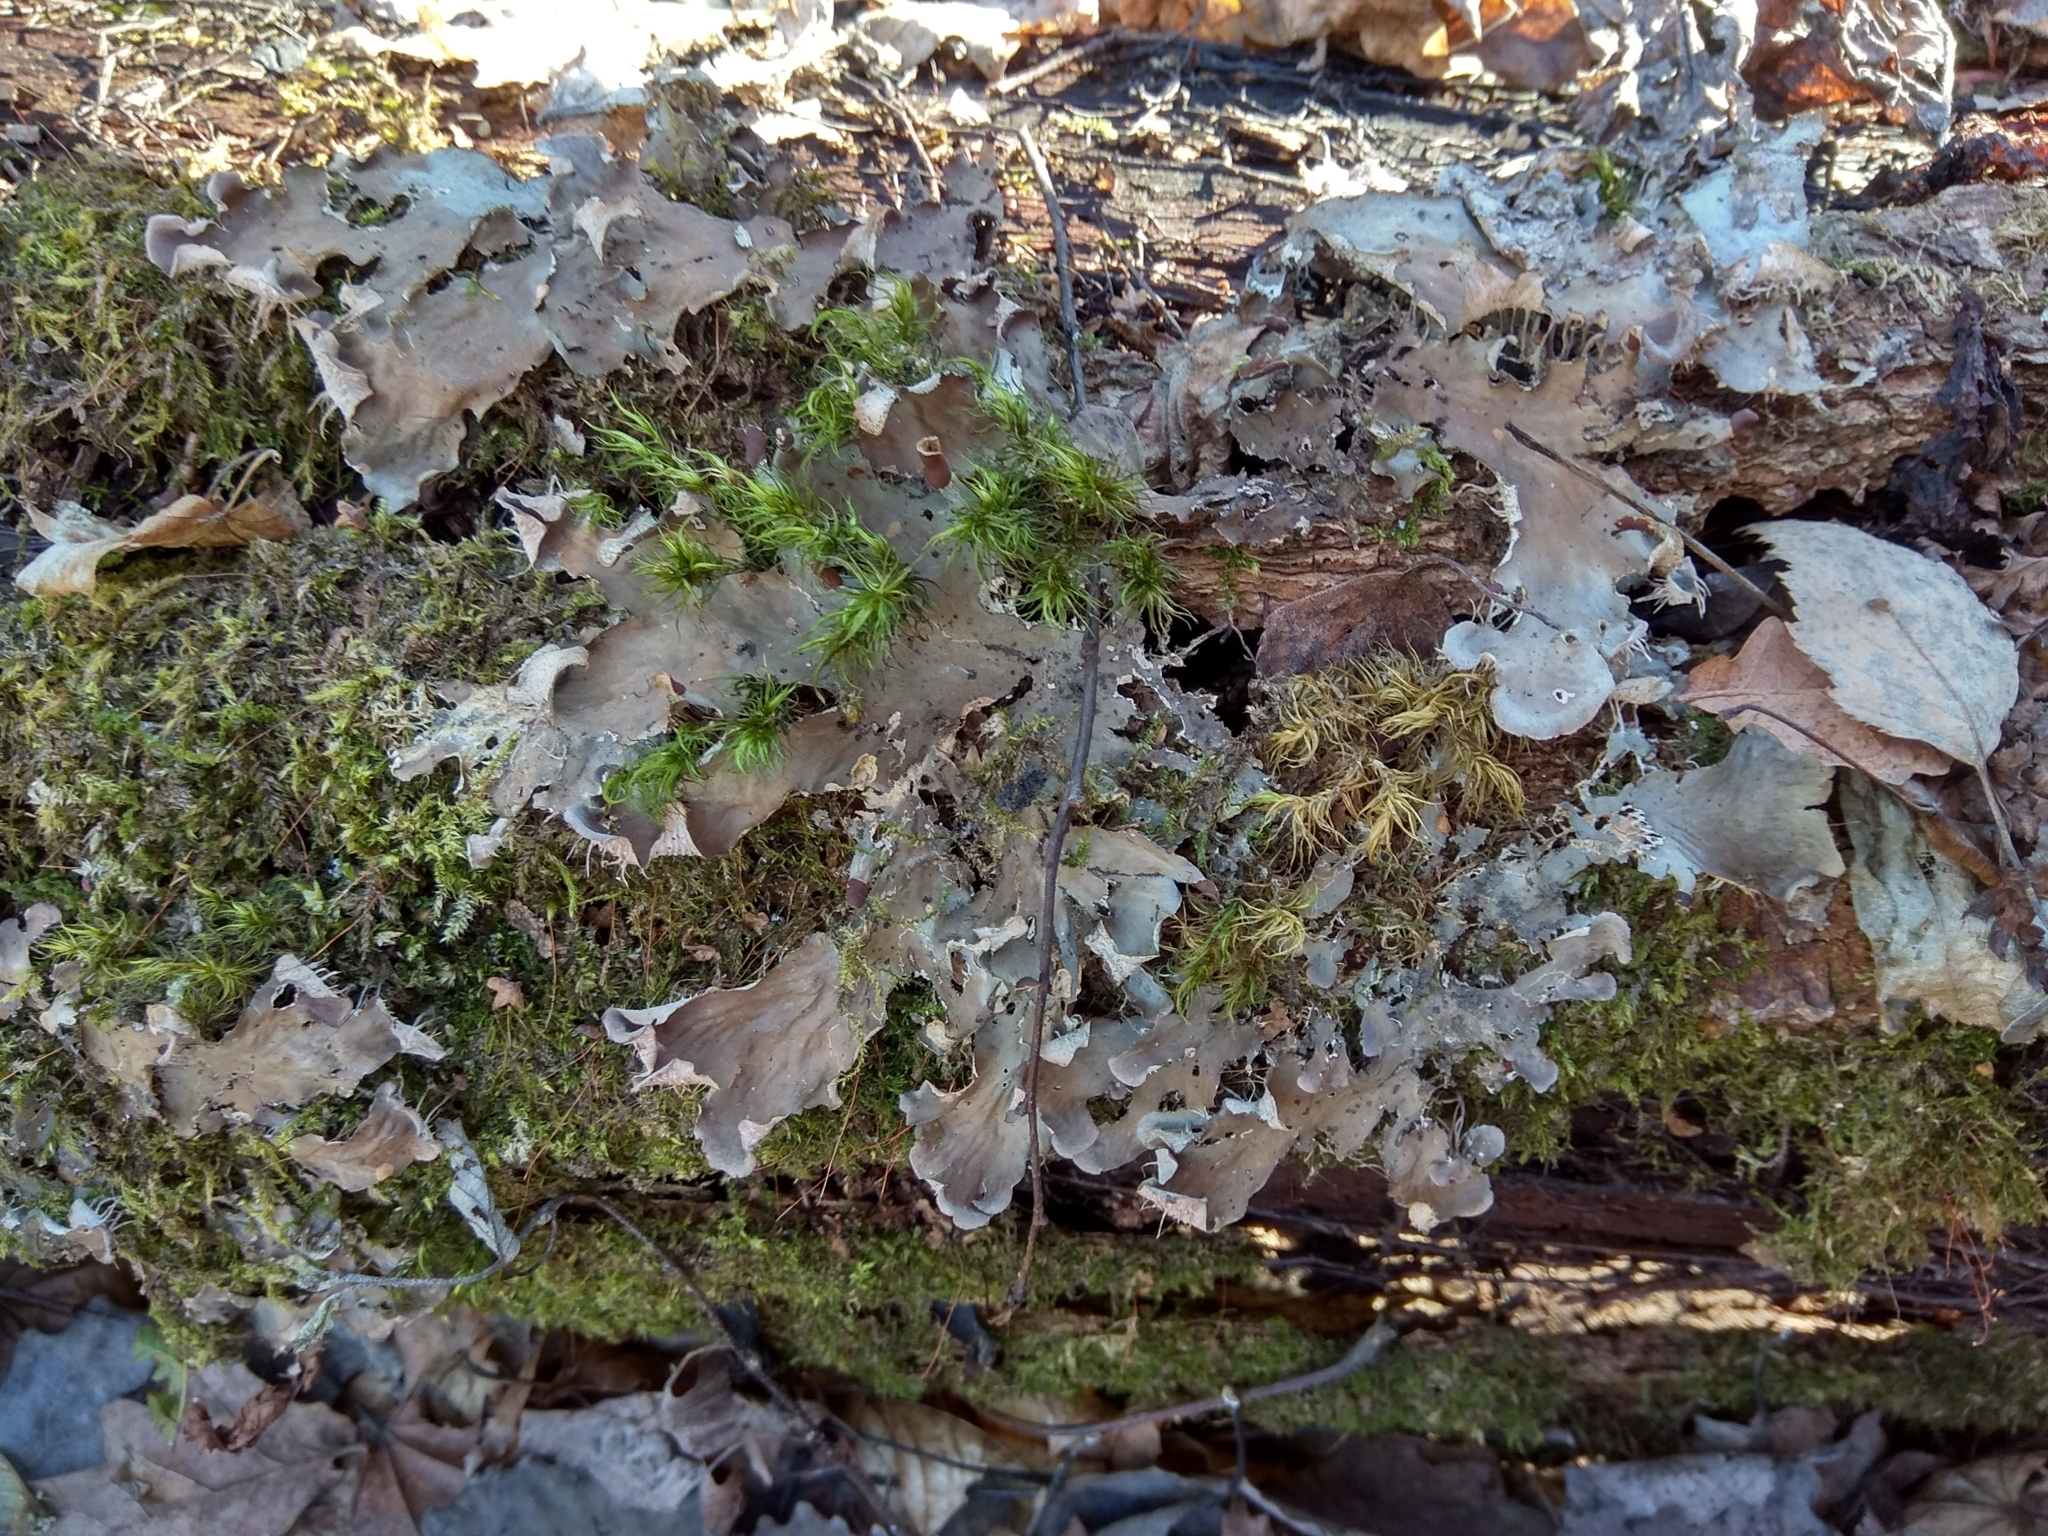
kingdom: Fungi
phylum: Ascomycota
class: Lecanoromycetes
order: Peltigerales
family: Peltigeraceae
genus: Peltigera
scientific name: Peltigera praetextata
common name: Scaly dog-lichen
